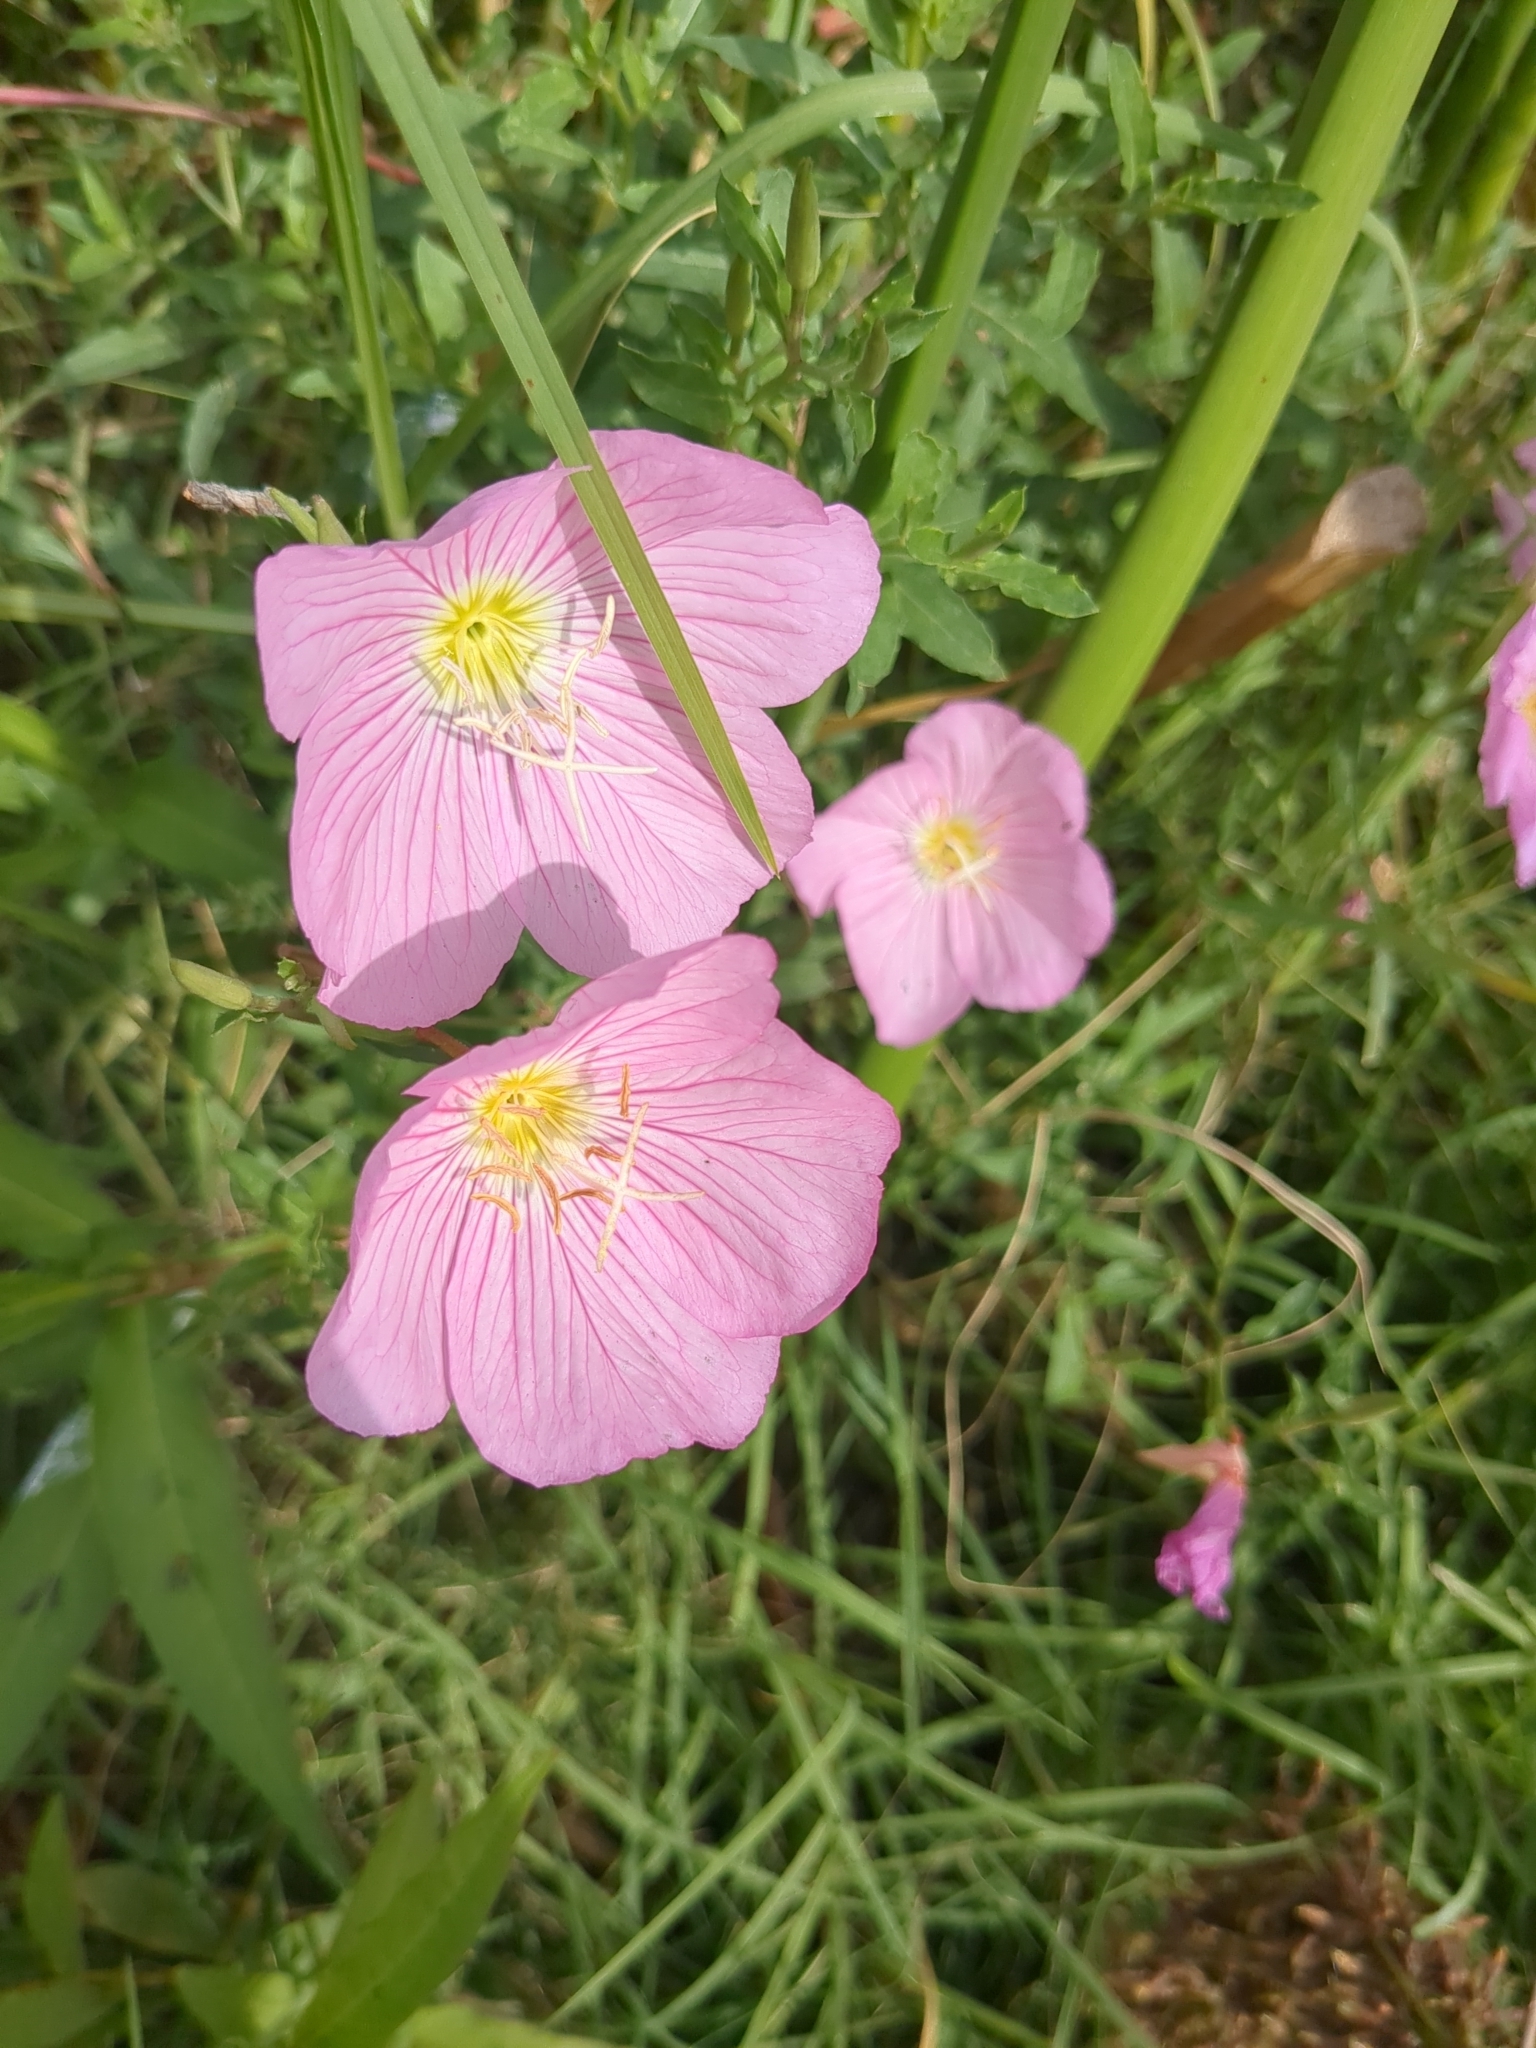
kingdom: Plantae
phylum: Tracheophyta
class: Magnoliopsida
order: Myrtales
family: Onagraceae
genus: Oenothera
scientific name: Oenothera speciosa
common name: White evening-primrose
